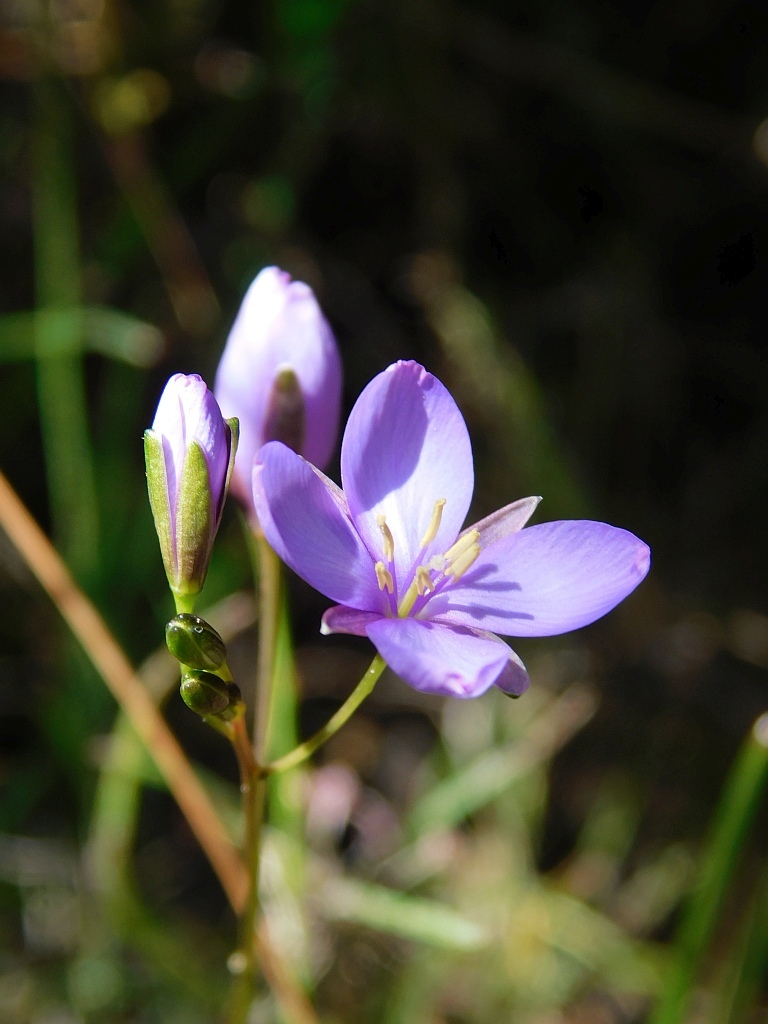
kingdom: Plantae
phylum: Tracheophyta
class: Magnoliopsida
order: Brassicales
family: Brassicaceae
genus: Heliophila
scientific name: Heliophila subulata
